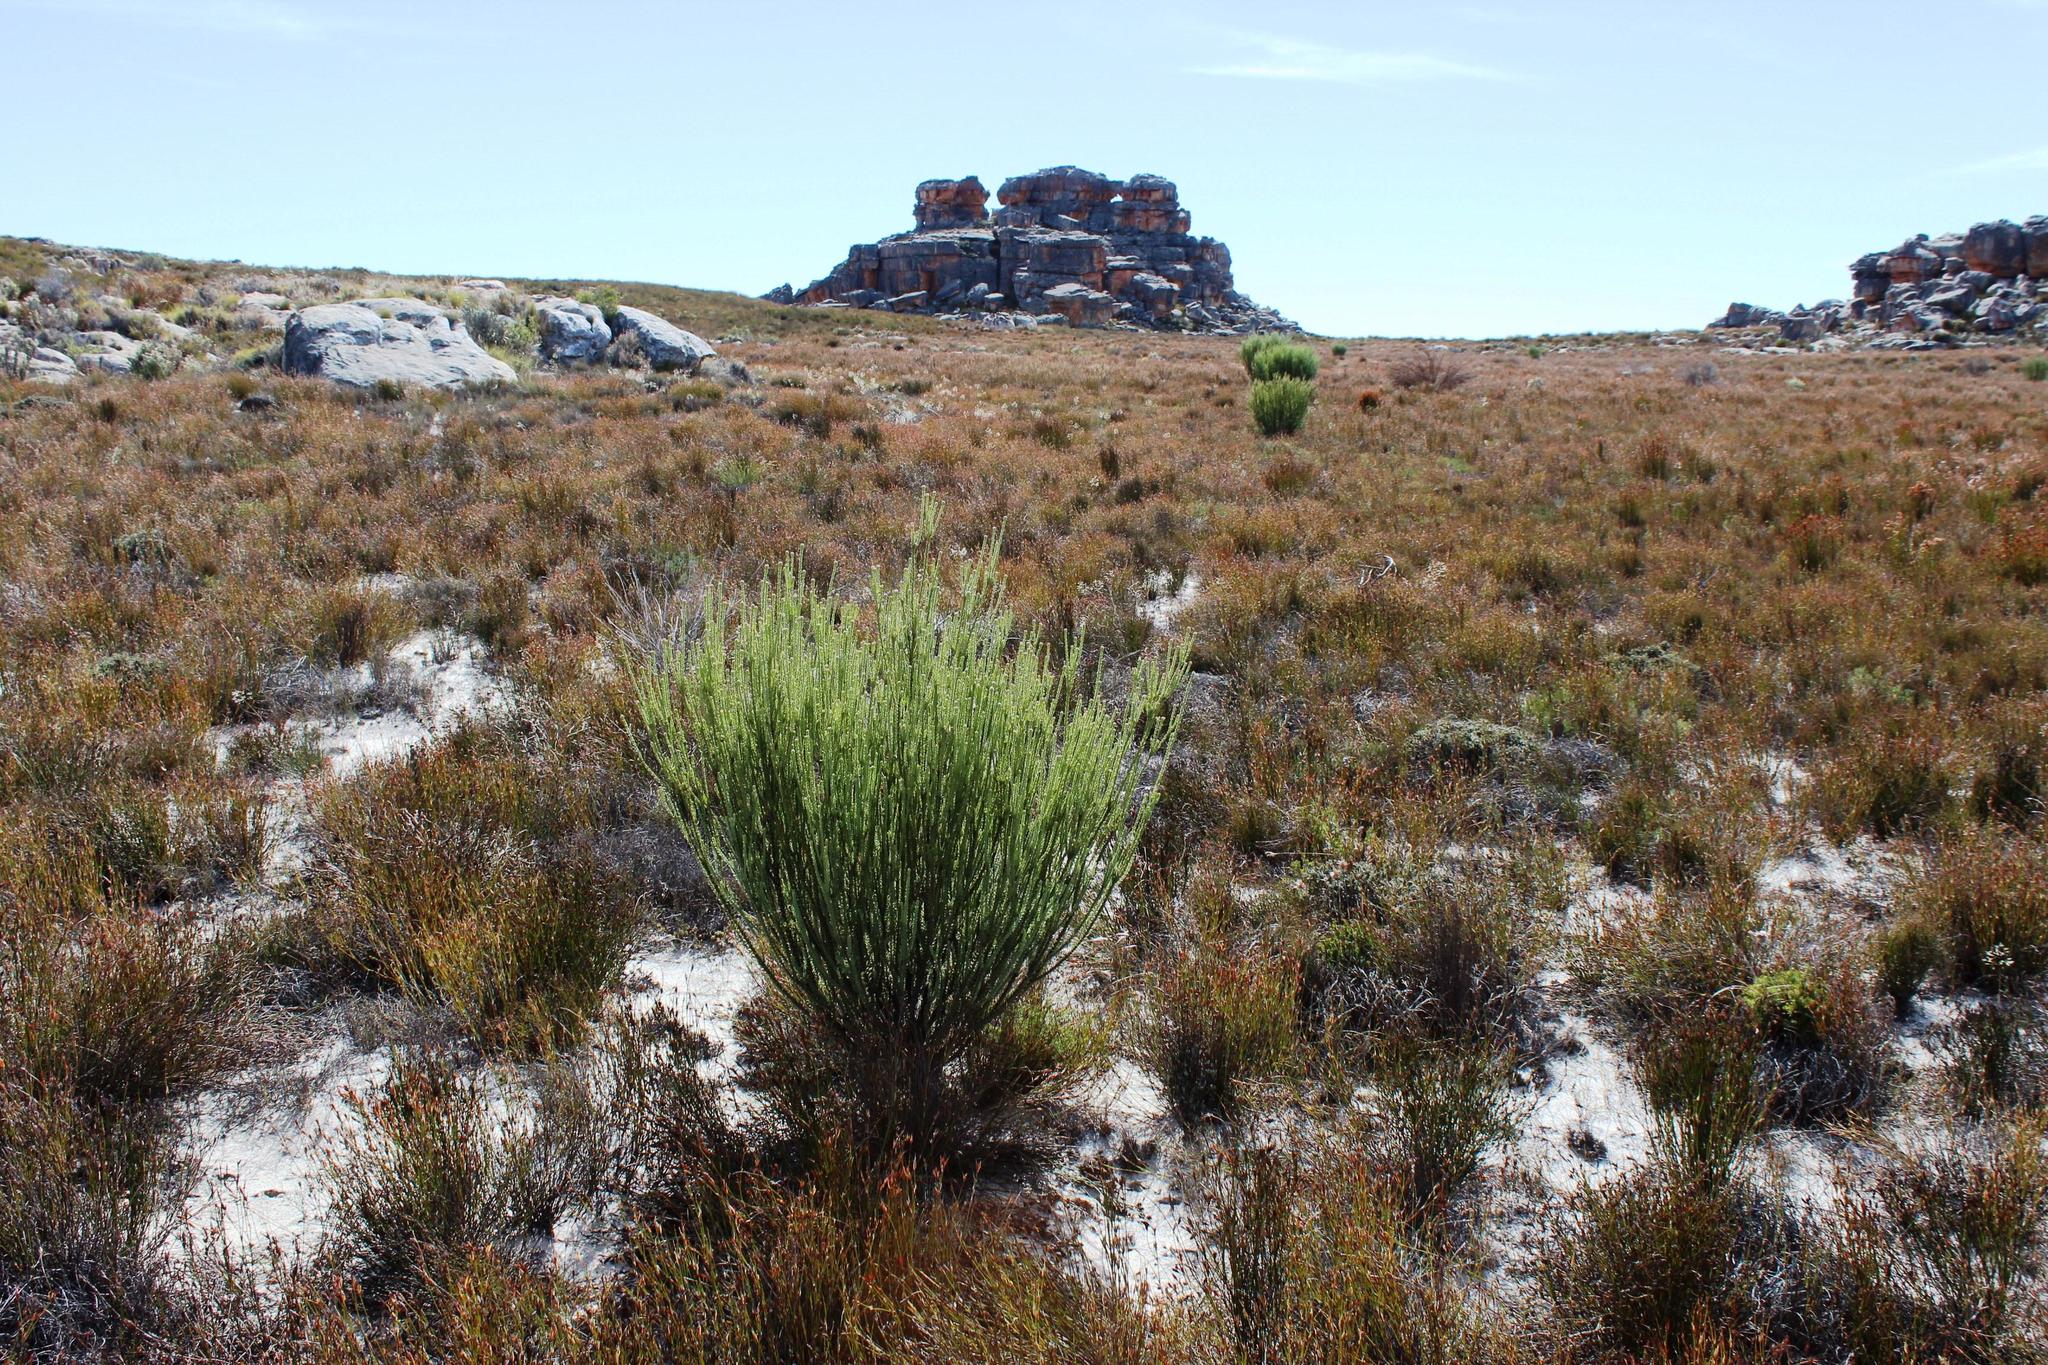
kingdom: Plantae
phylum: Tracheophyta
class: Magnoliopsida
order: Proteales
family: Proteaceae
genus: Leucadendron
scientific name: Leucadendron dubium
